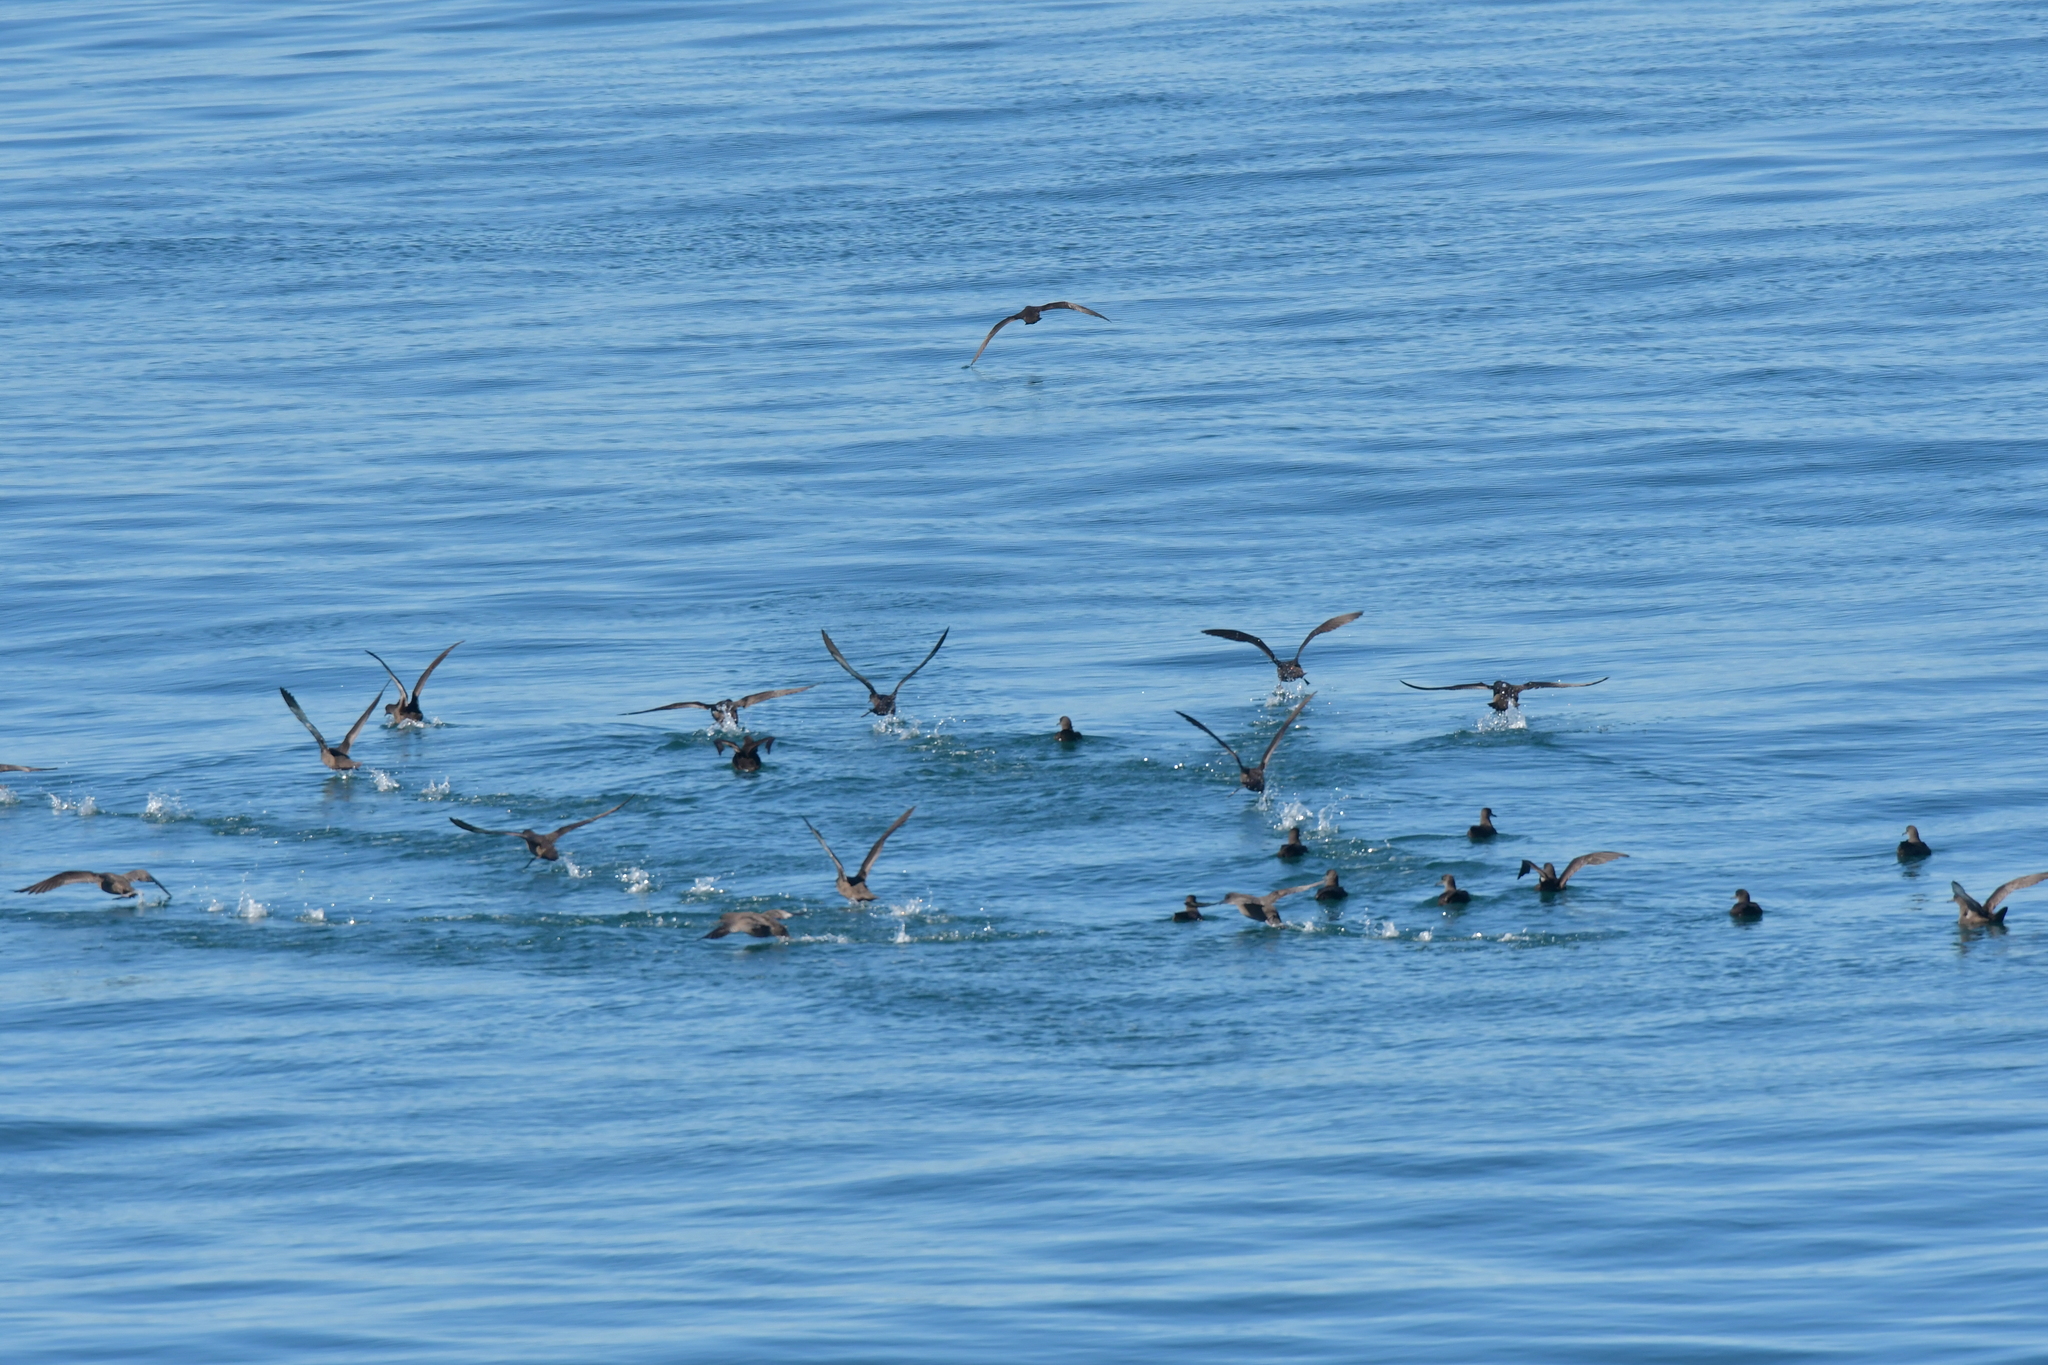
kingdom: Animalia
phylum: Chordata
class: Aves
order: Procellariiformes
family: Procellariidae
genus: Puffinus
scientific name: Puffinus griseus
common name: Sooty shearwater
